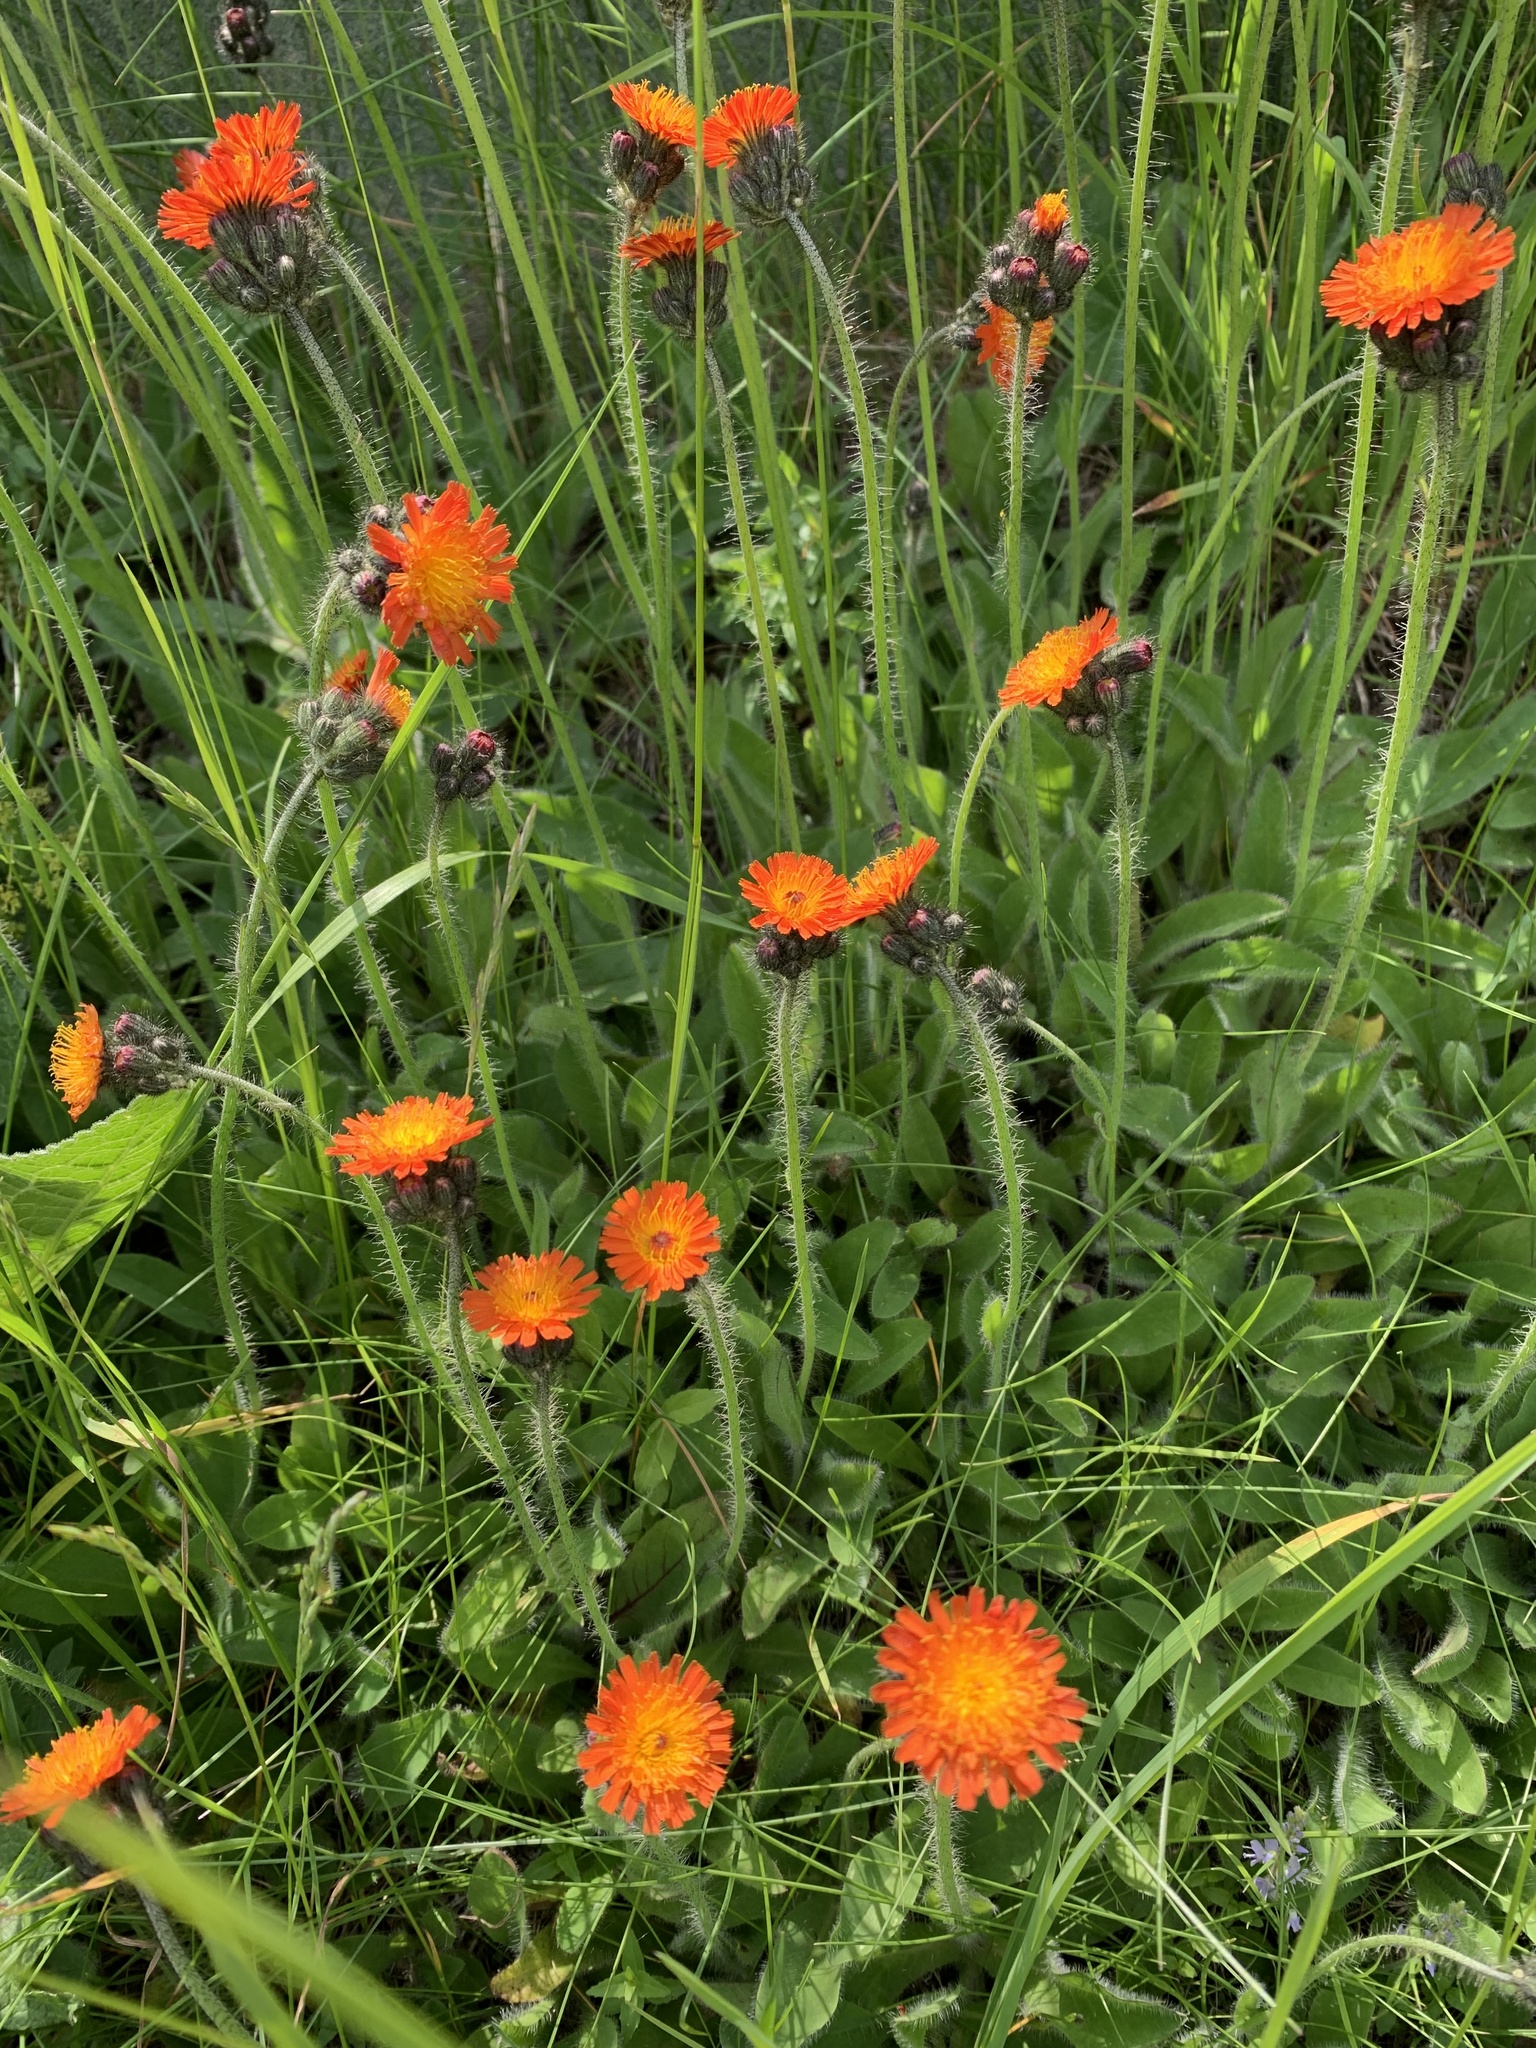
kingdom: Plantae
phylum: Tracheophyta
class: Magnoliopsida
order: Asterales
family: Asteraceae
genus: Pilosella
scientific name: Pilosella aurantiaca
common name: Fox-and-cubs
